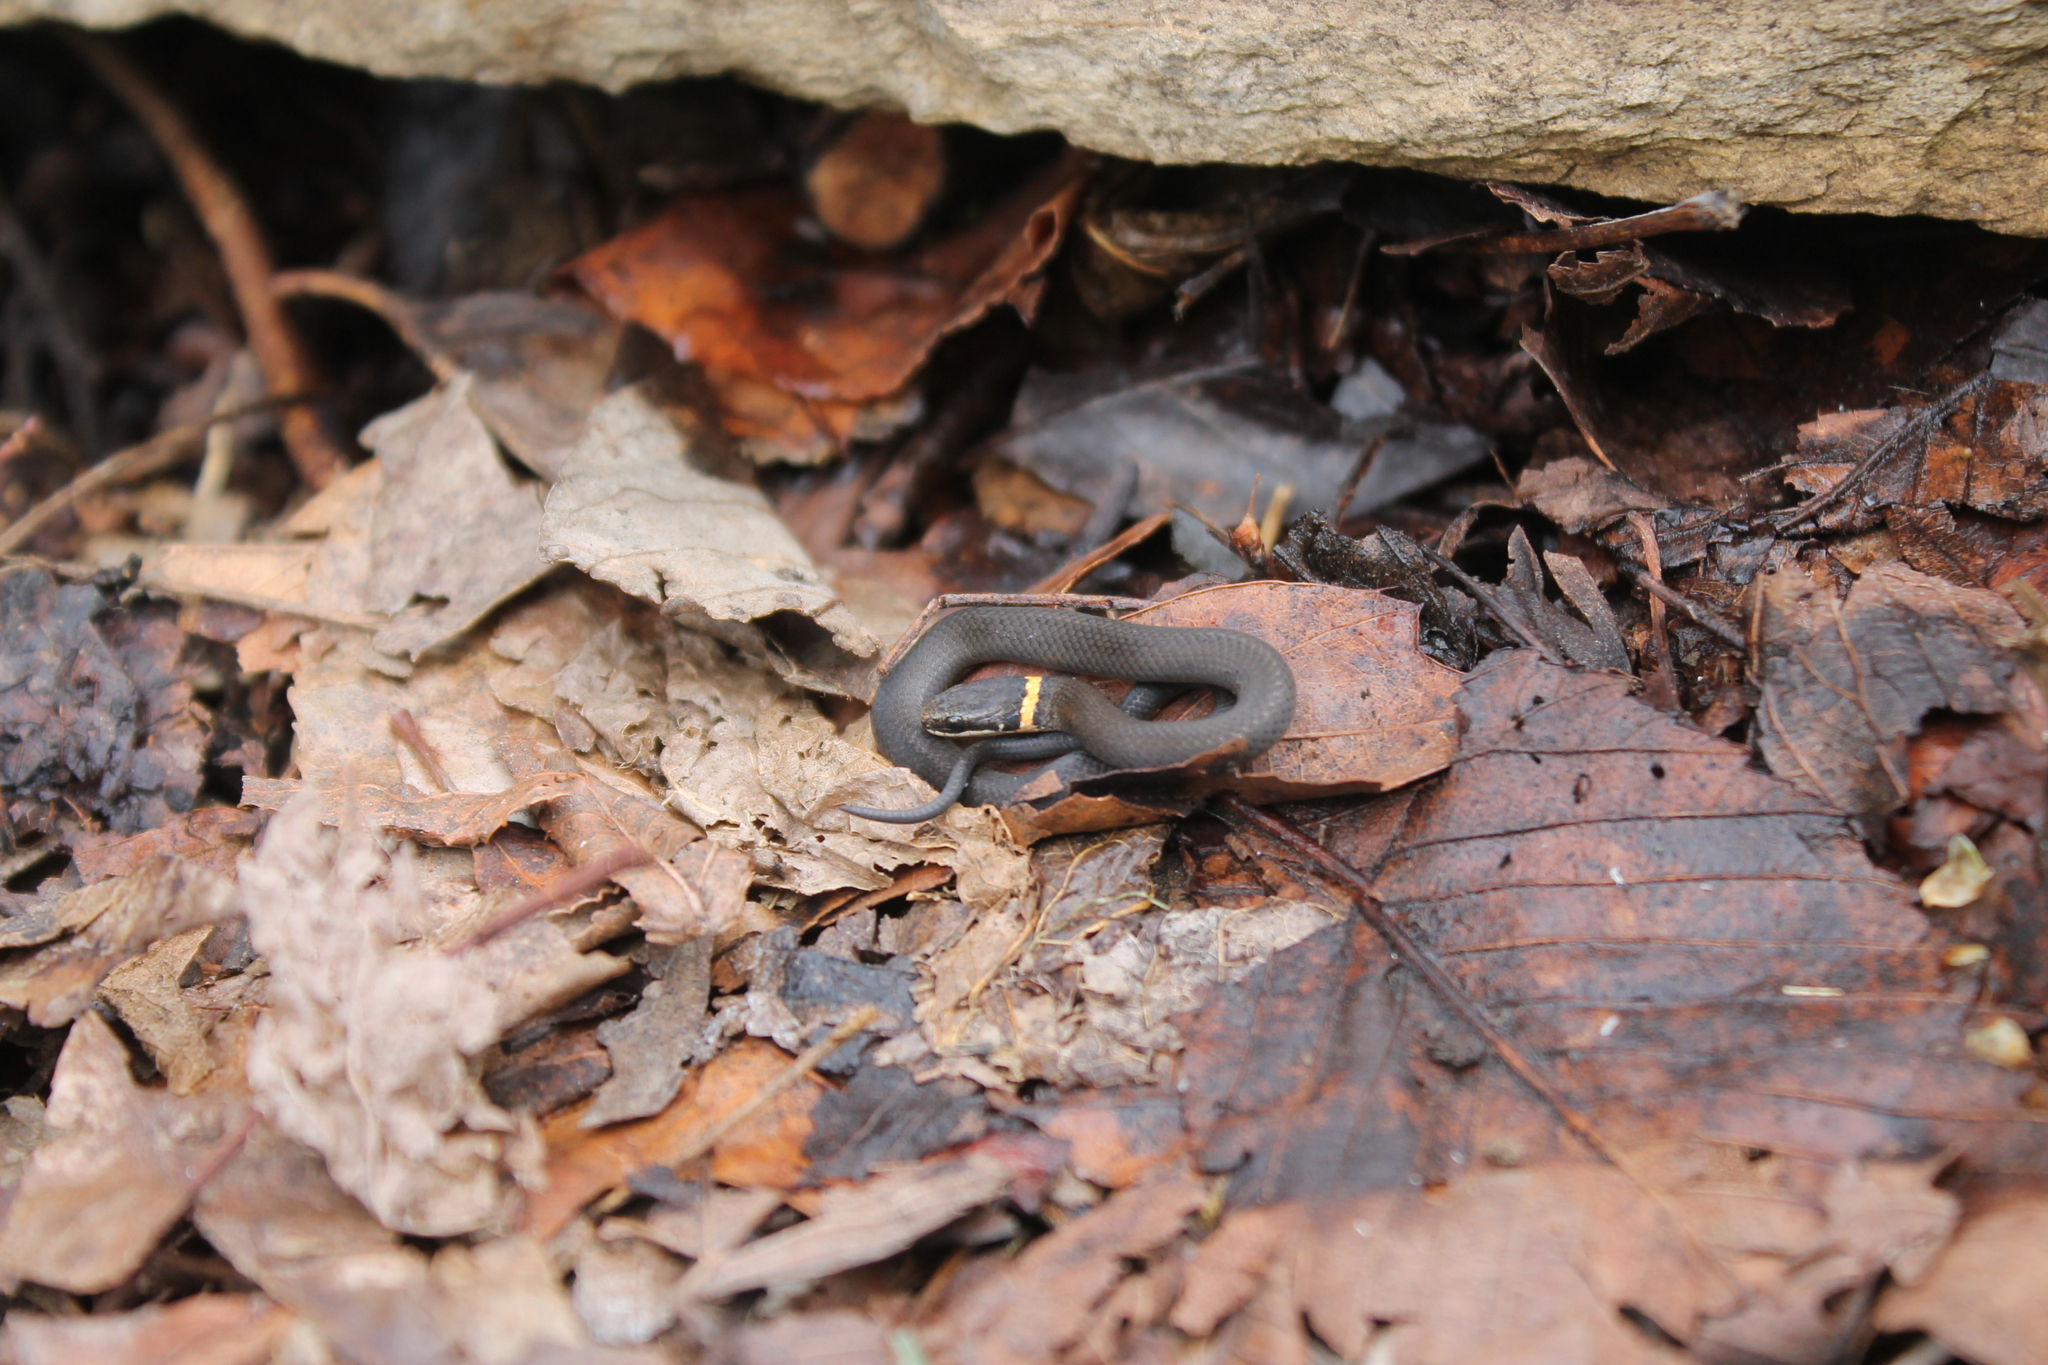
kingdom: Animalia
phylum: Chordata
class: Squamata
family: Colubridae
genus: Diadophis
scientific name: Diadophis punctatus
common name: Ringneck snake
